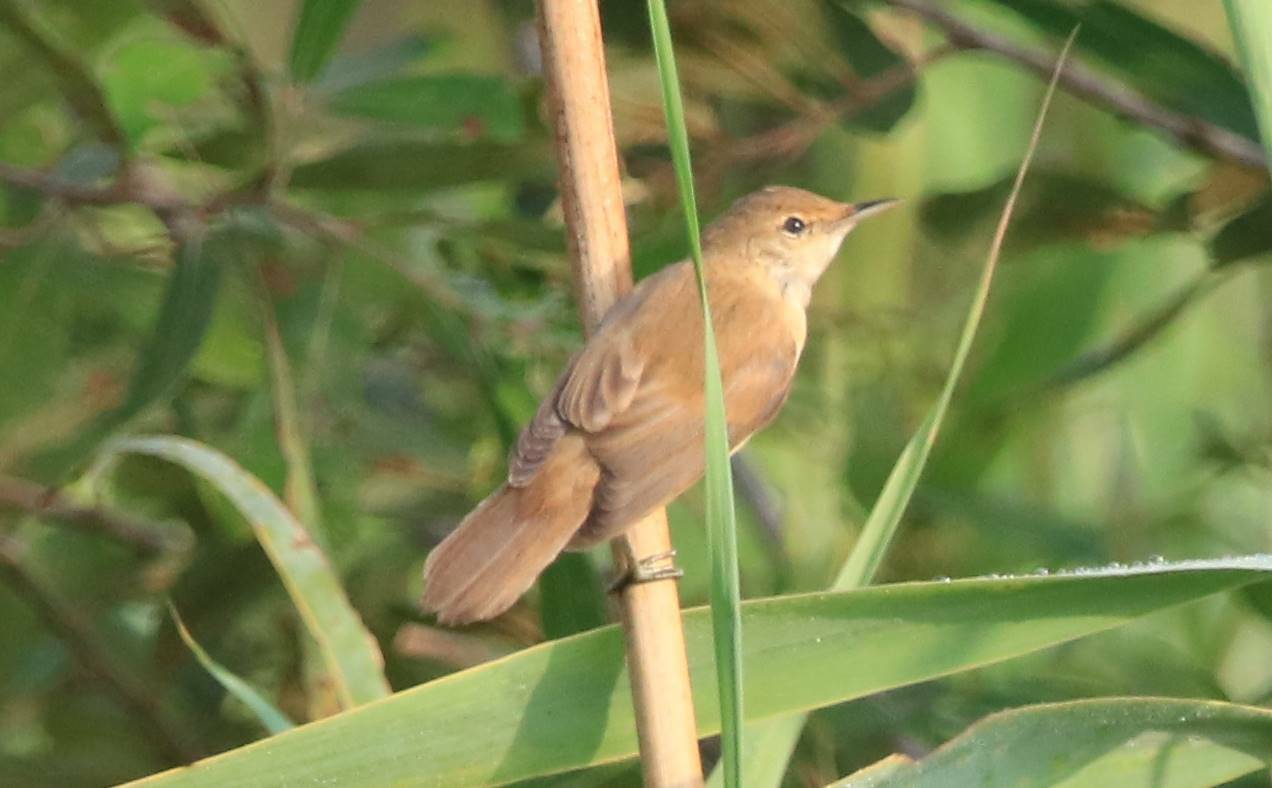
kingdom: Animalia
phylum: Chordata
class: Aves
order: Passeriformes
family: Acrocephalidae
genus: Acrocephalus
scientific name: Acrocephalus scirpaceus
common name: Eurasian reed warbler
